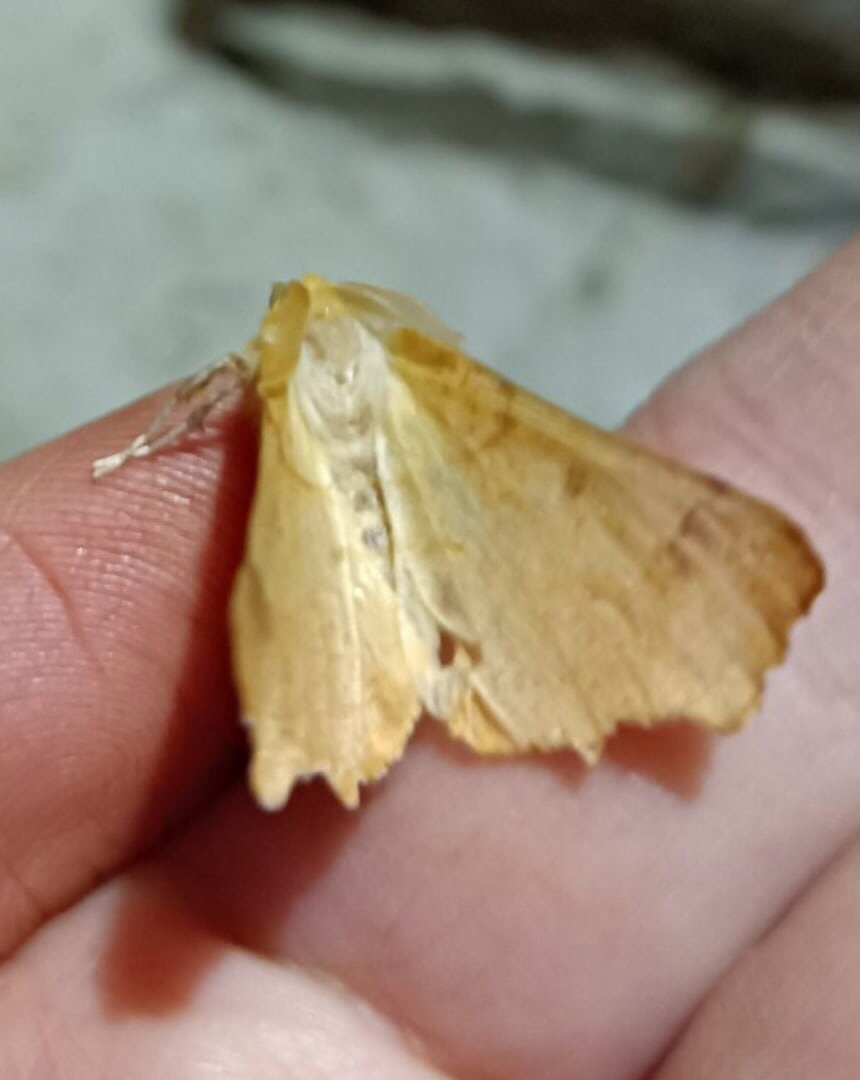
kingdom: Animalia
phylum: Arthropoda
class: Insecta
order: Lepidoptera
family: Geometridae
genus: Ennomos
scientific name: Ennomos autumnaria
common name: Large thorn
